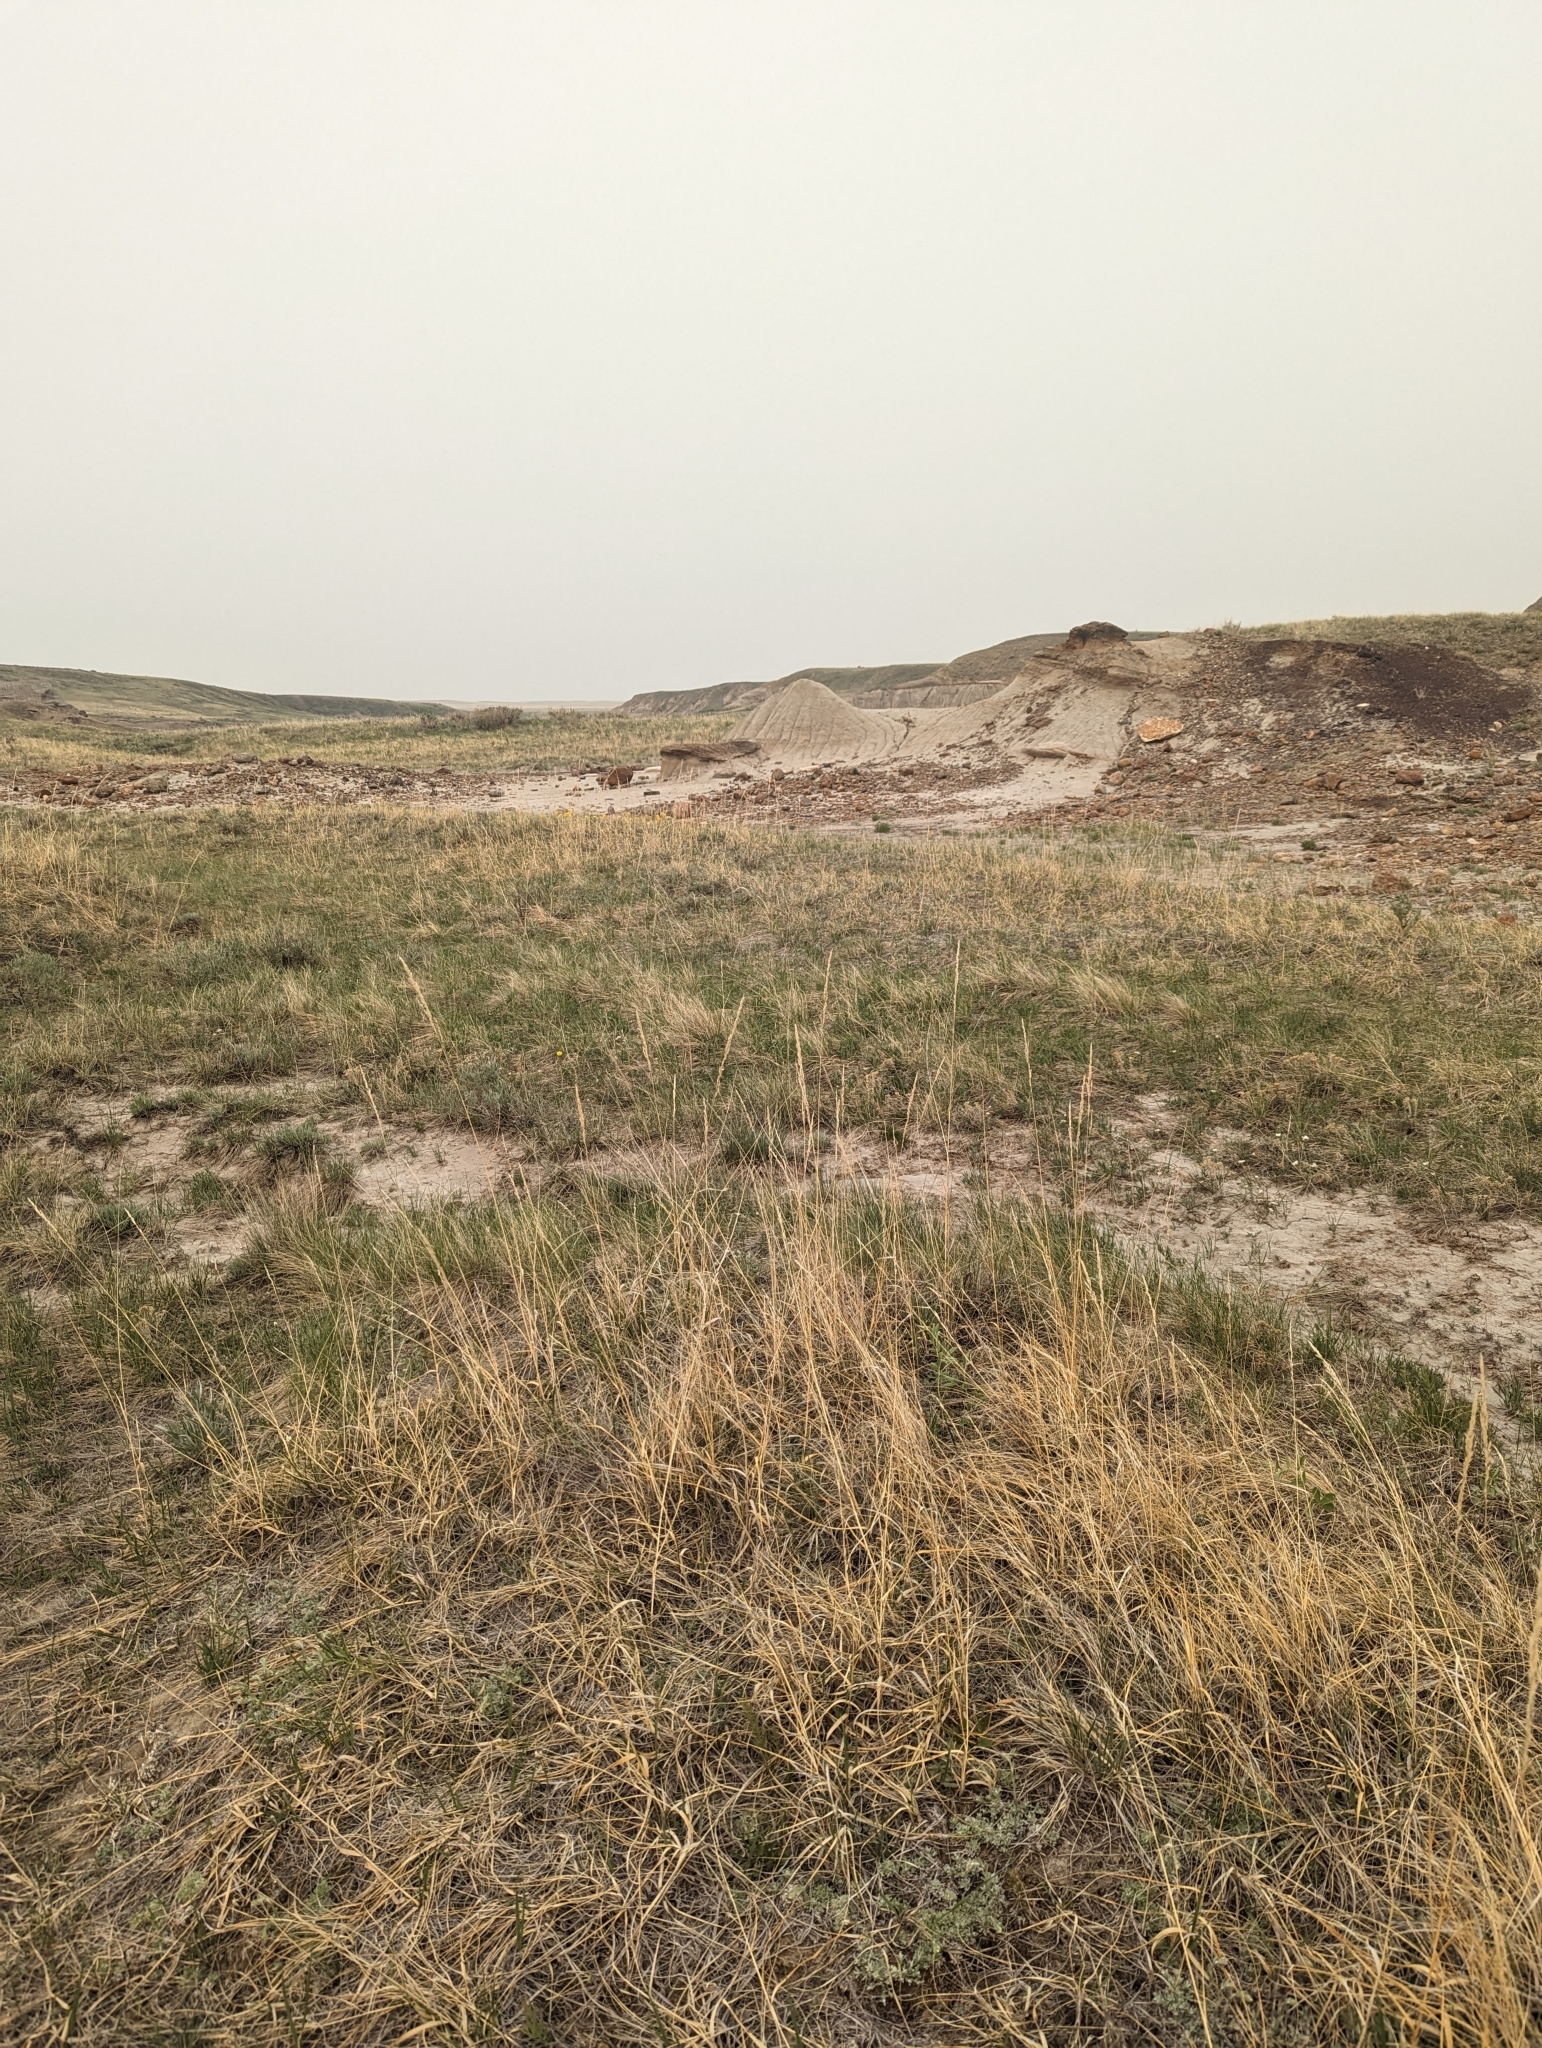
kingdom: Plantae
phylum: Tracheophyta
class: Liliopsida
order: Poales
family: Poaceae
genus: Sporobolus
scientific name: Sporobolus rigidus
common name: Prairie sandreed
